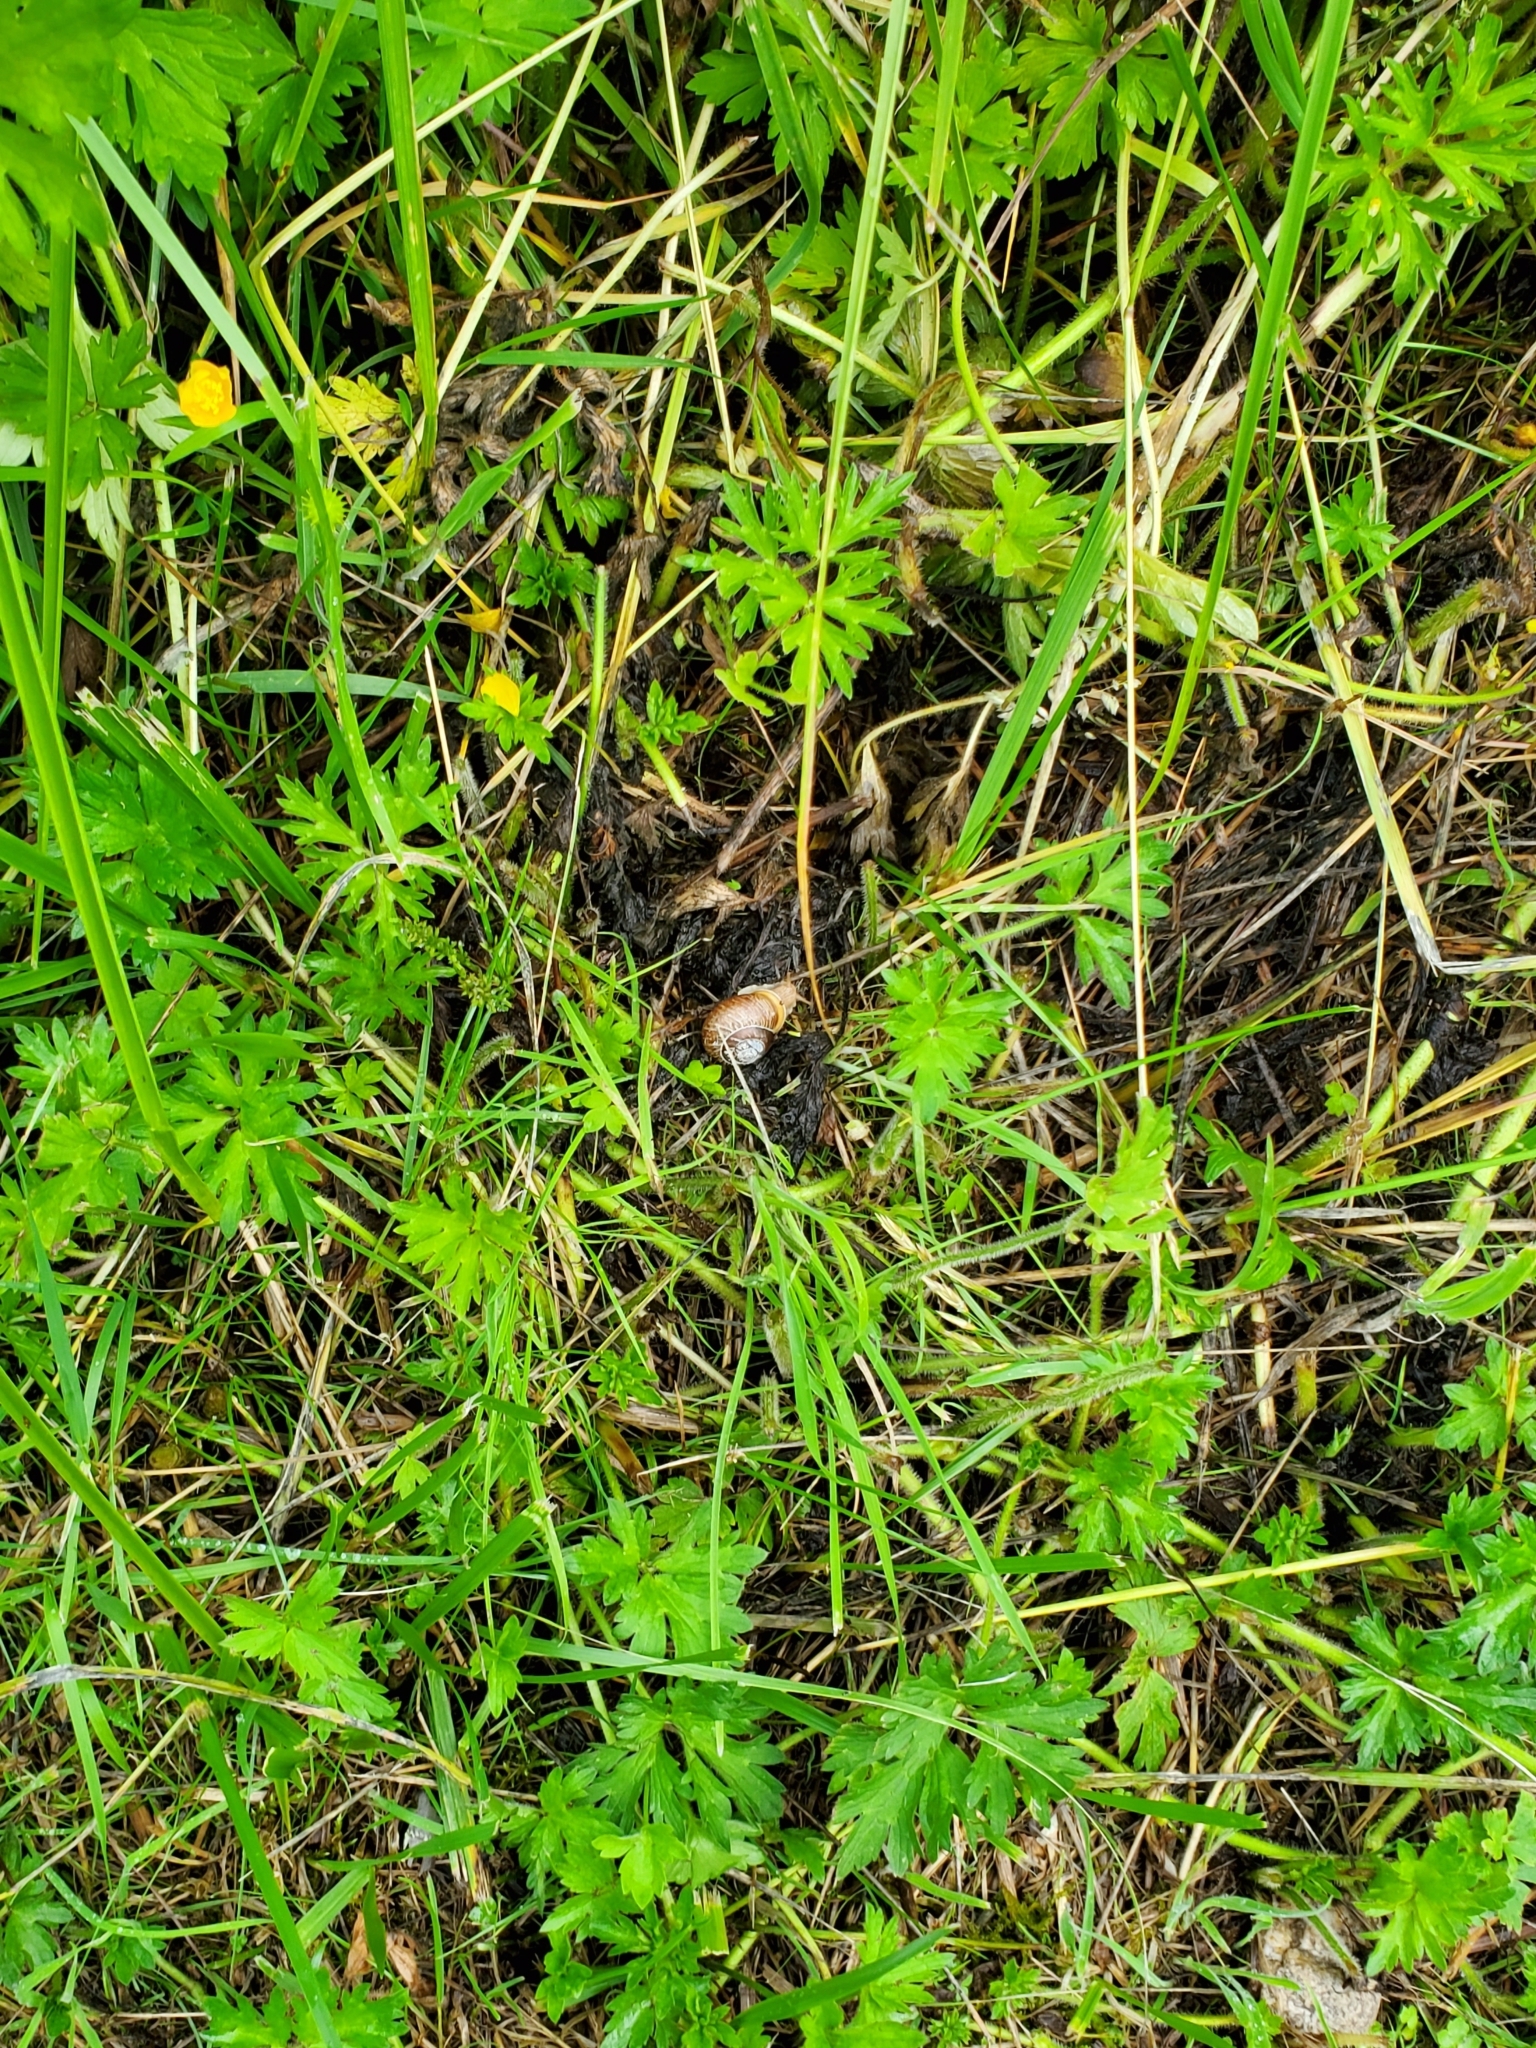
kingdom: Animalia
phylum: Mollusca
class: Gastropoda
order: Stylommatophora
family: Polygyridae
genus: Allogona
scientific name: Allogona townsendiana
